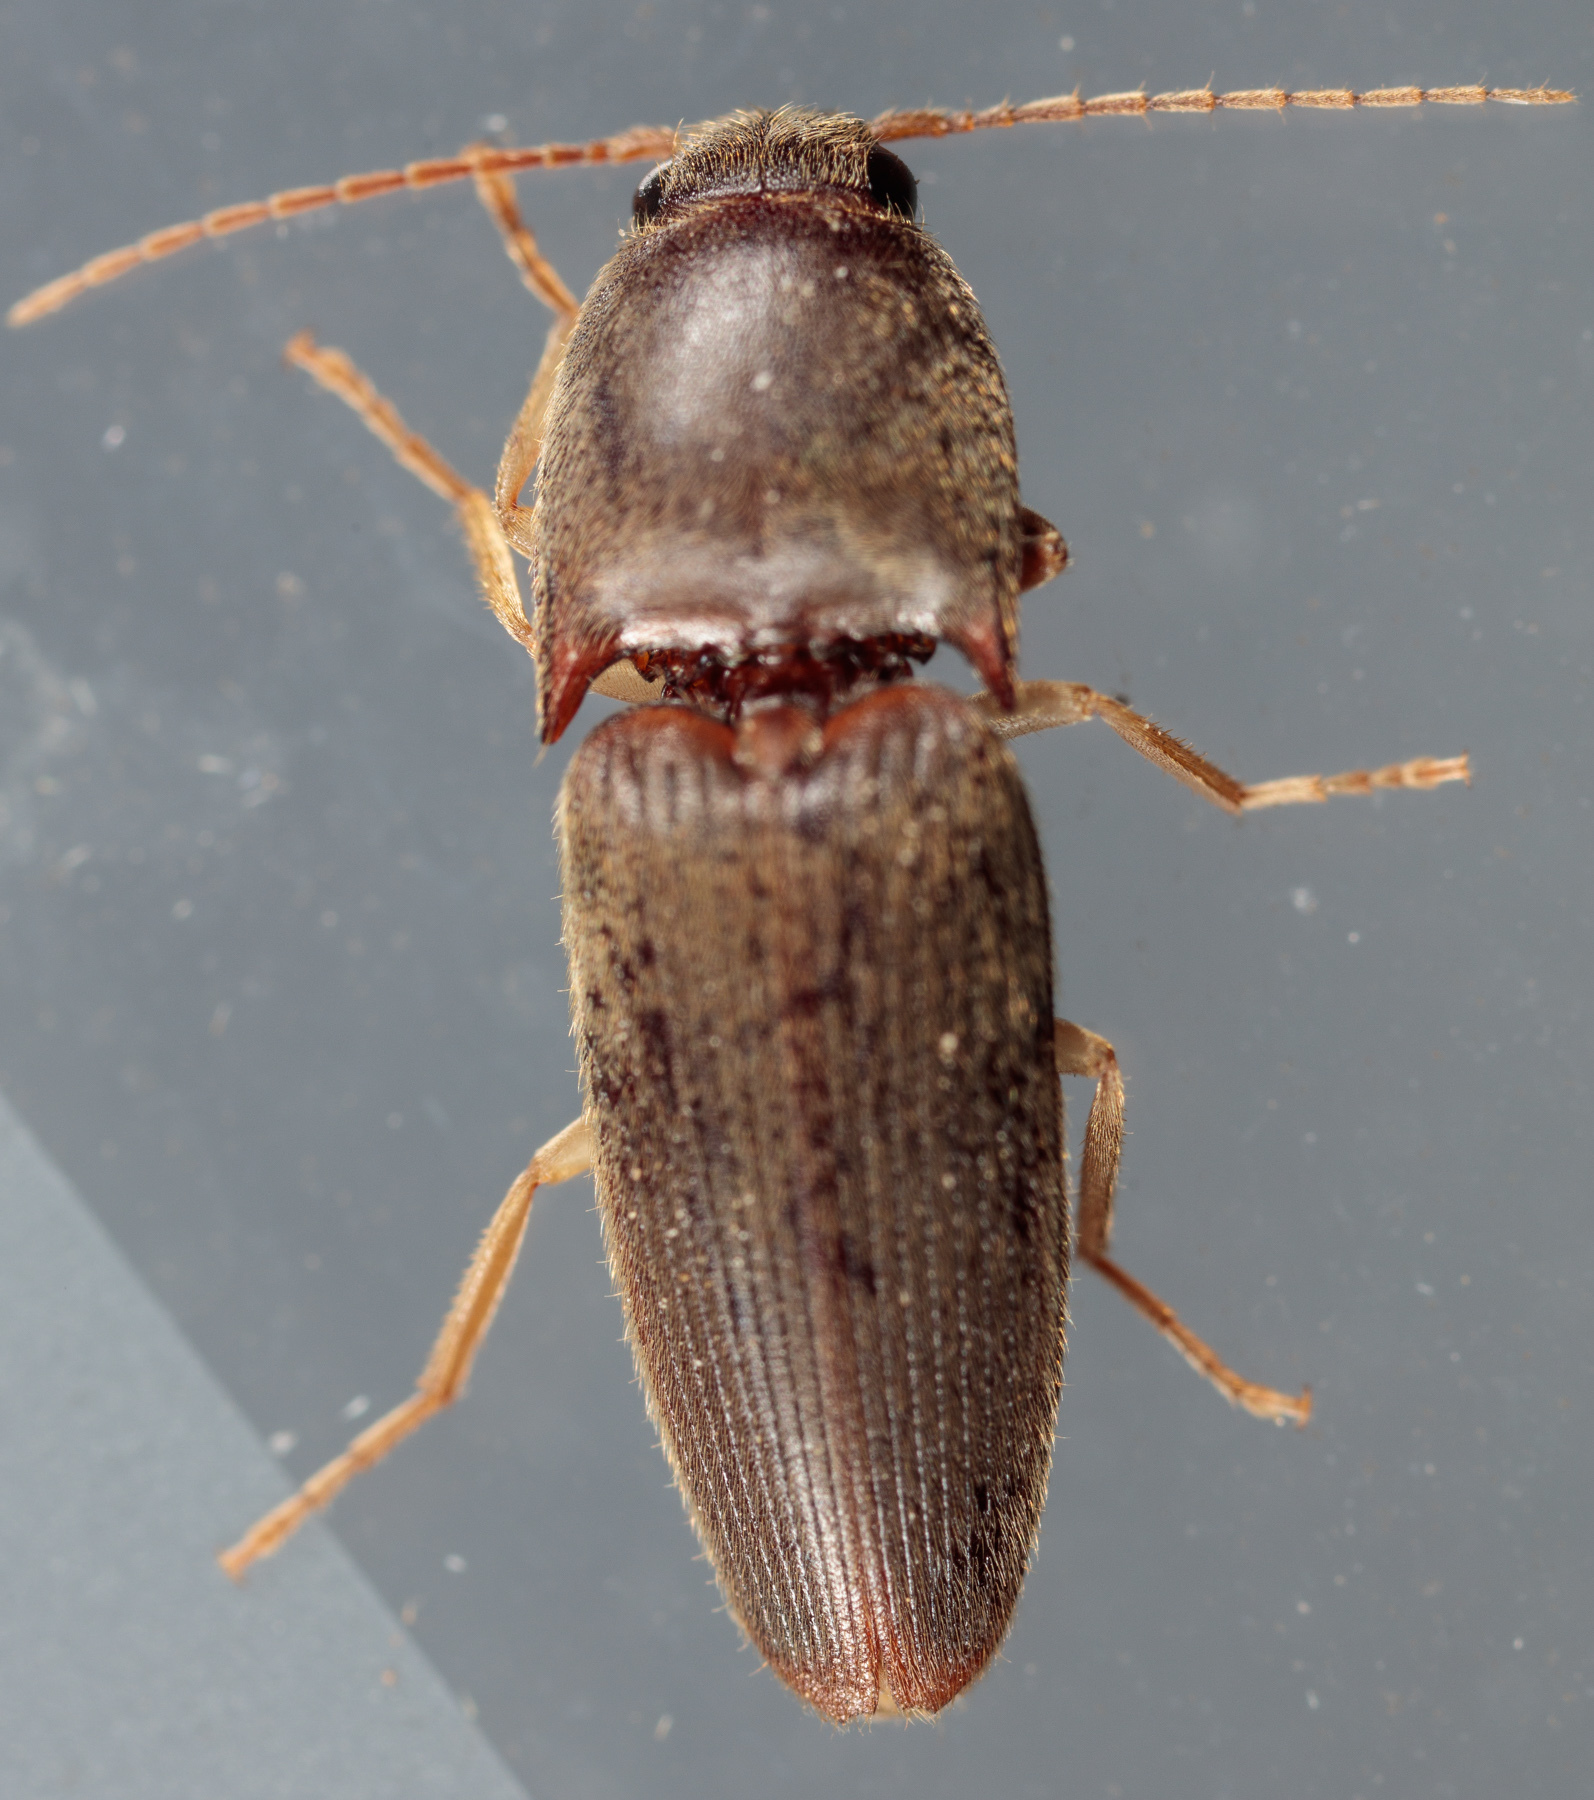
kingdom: Animalia
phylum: Arthropoda
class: Insecta
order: Coleoptera
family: Elateridae
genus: Conoderus
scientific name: Conoderus exsul
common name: Click beetle
